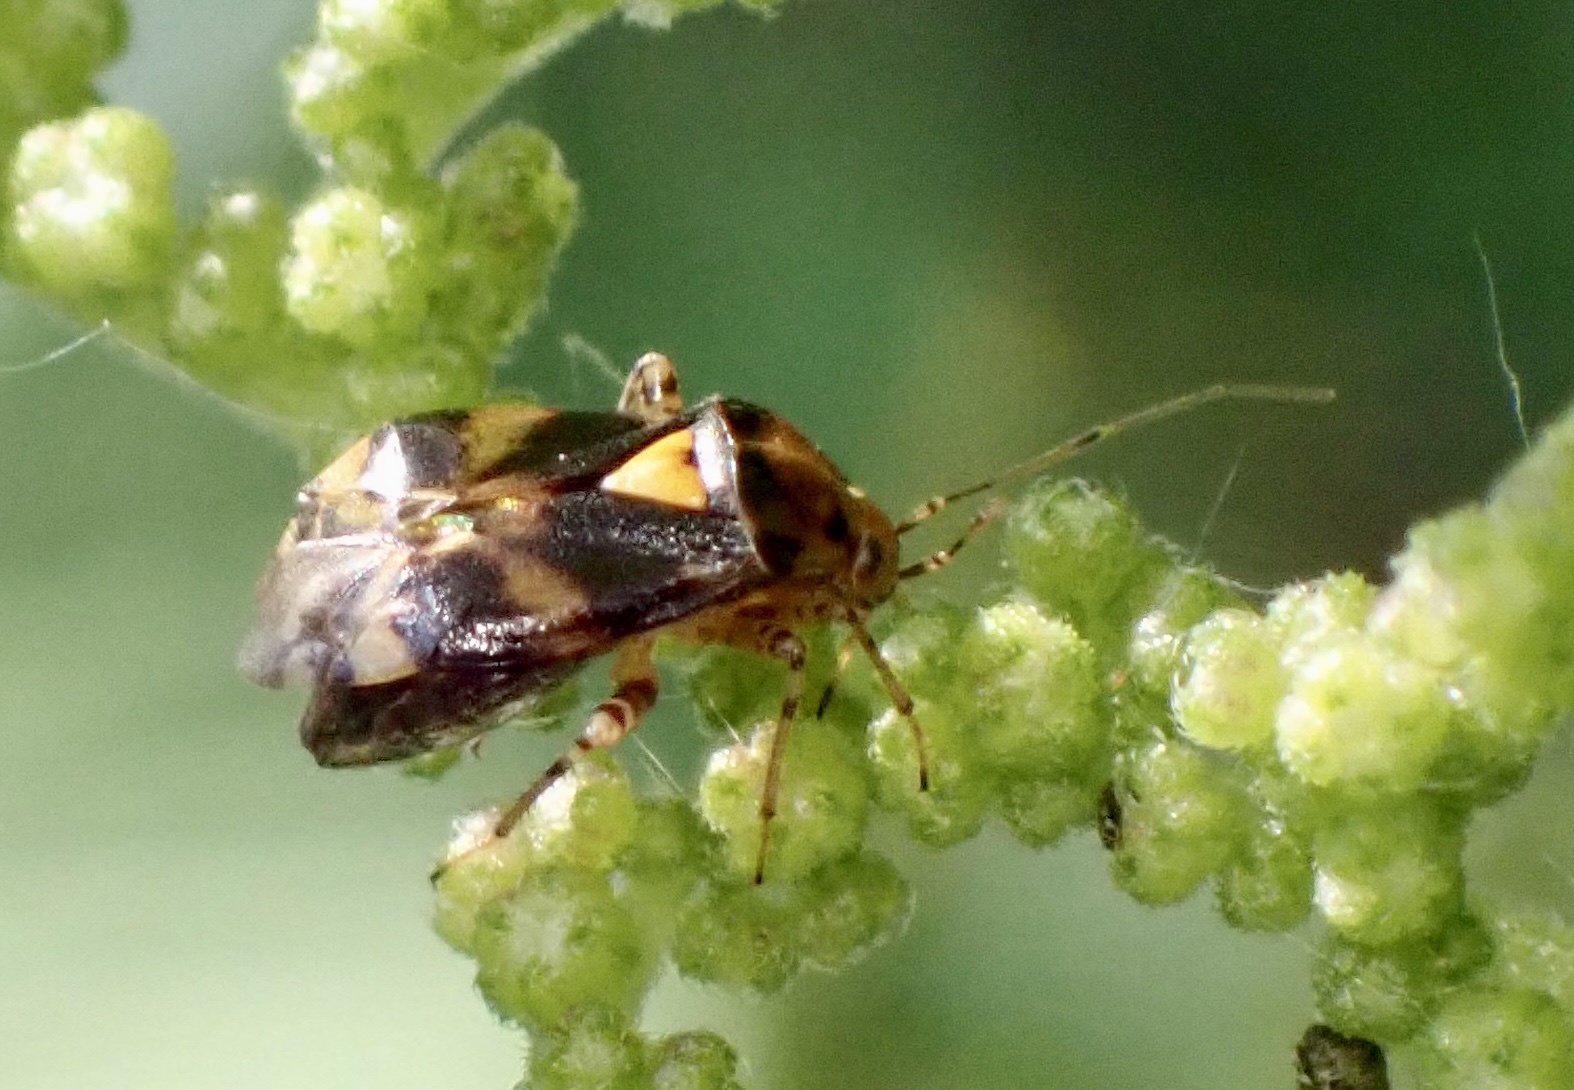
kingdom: Animalia
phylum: Arthropoda
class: Insecta
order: Hemiptera
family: Miridae
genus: Liocoris
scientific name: Liocoris tripustulatus
